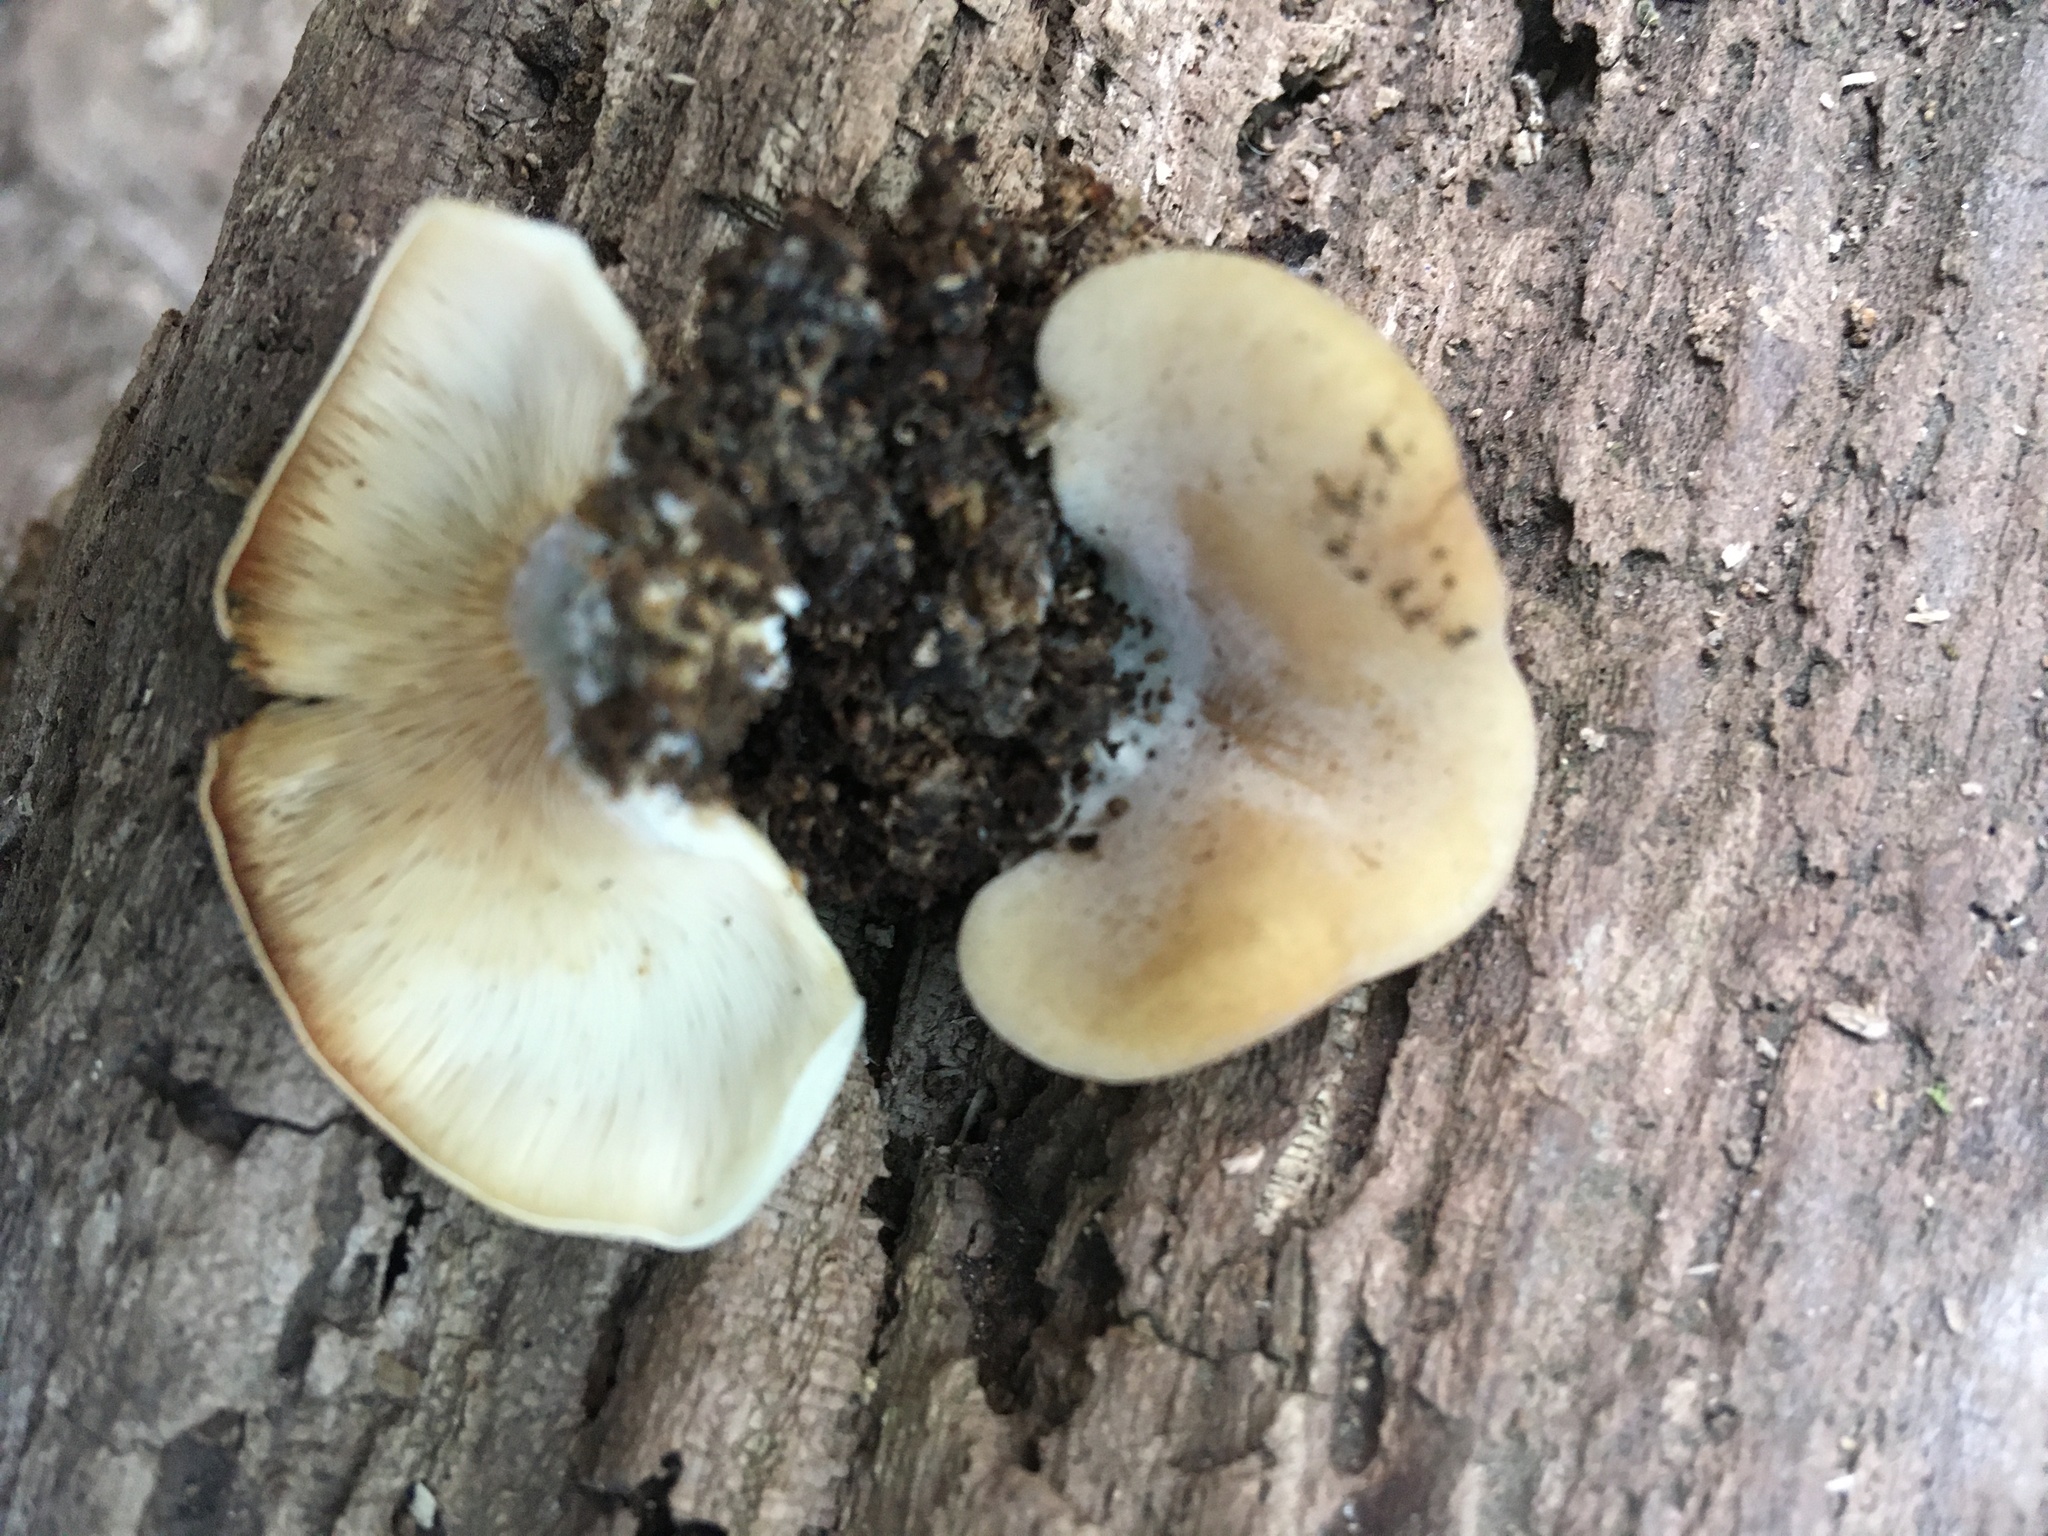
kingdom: Fungi
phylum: Basidiomycota
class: Agaricomycetes
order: Agaricales
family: Pleurotaceae
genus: Hohenbuehelia
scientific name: Hohenbuehelia petaloides
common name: Shoehorn oyster
